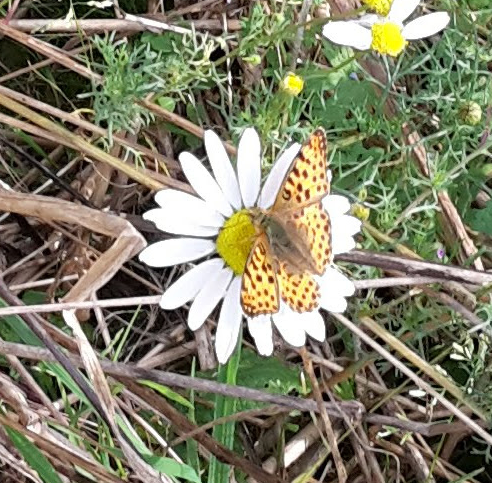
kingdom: Animalia
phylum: Arthropoda
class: Insecta
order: Lepidoptera
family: Nymphalidae
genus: Issoria
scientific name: Issoria lathonia
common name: Queen of spain fritillary
